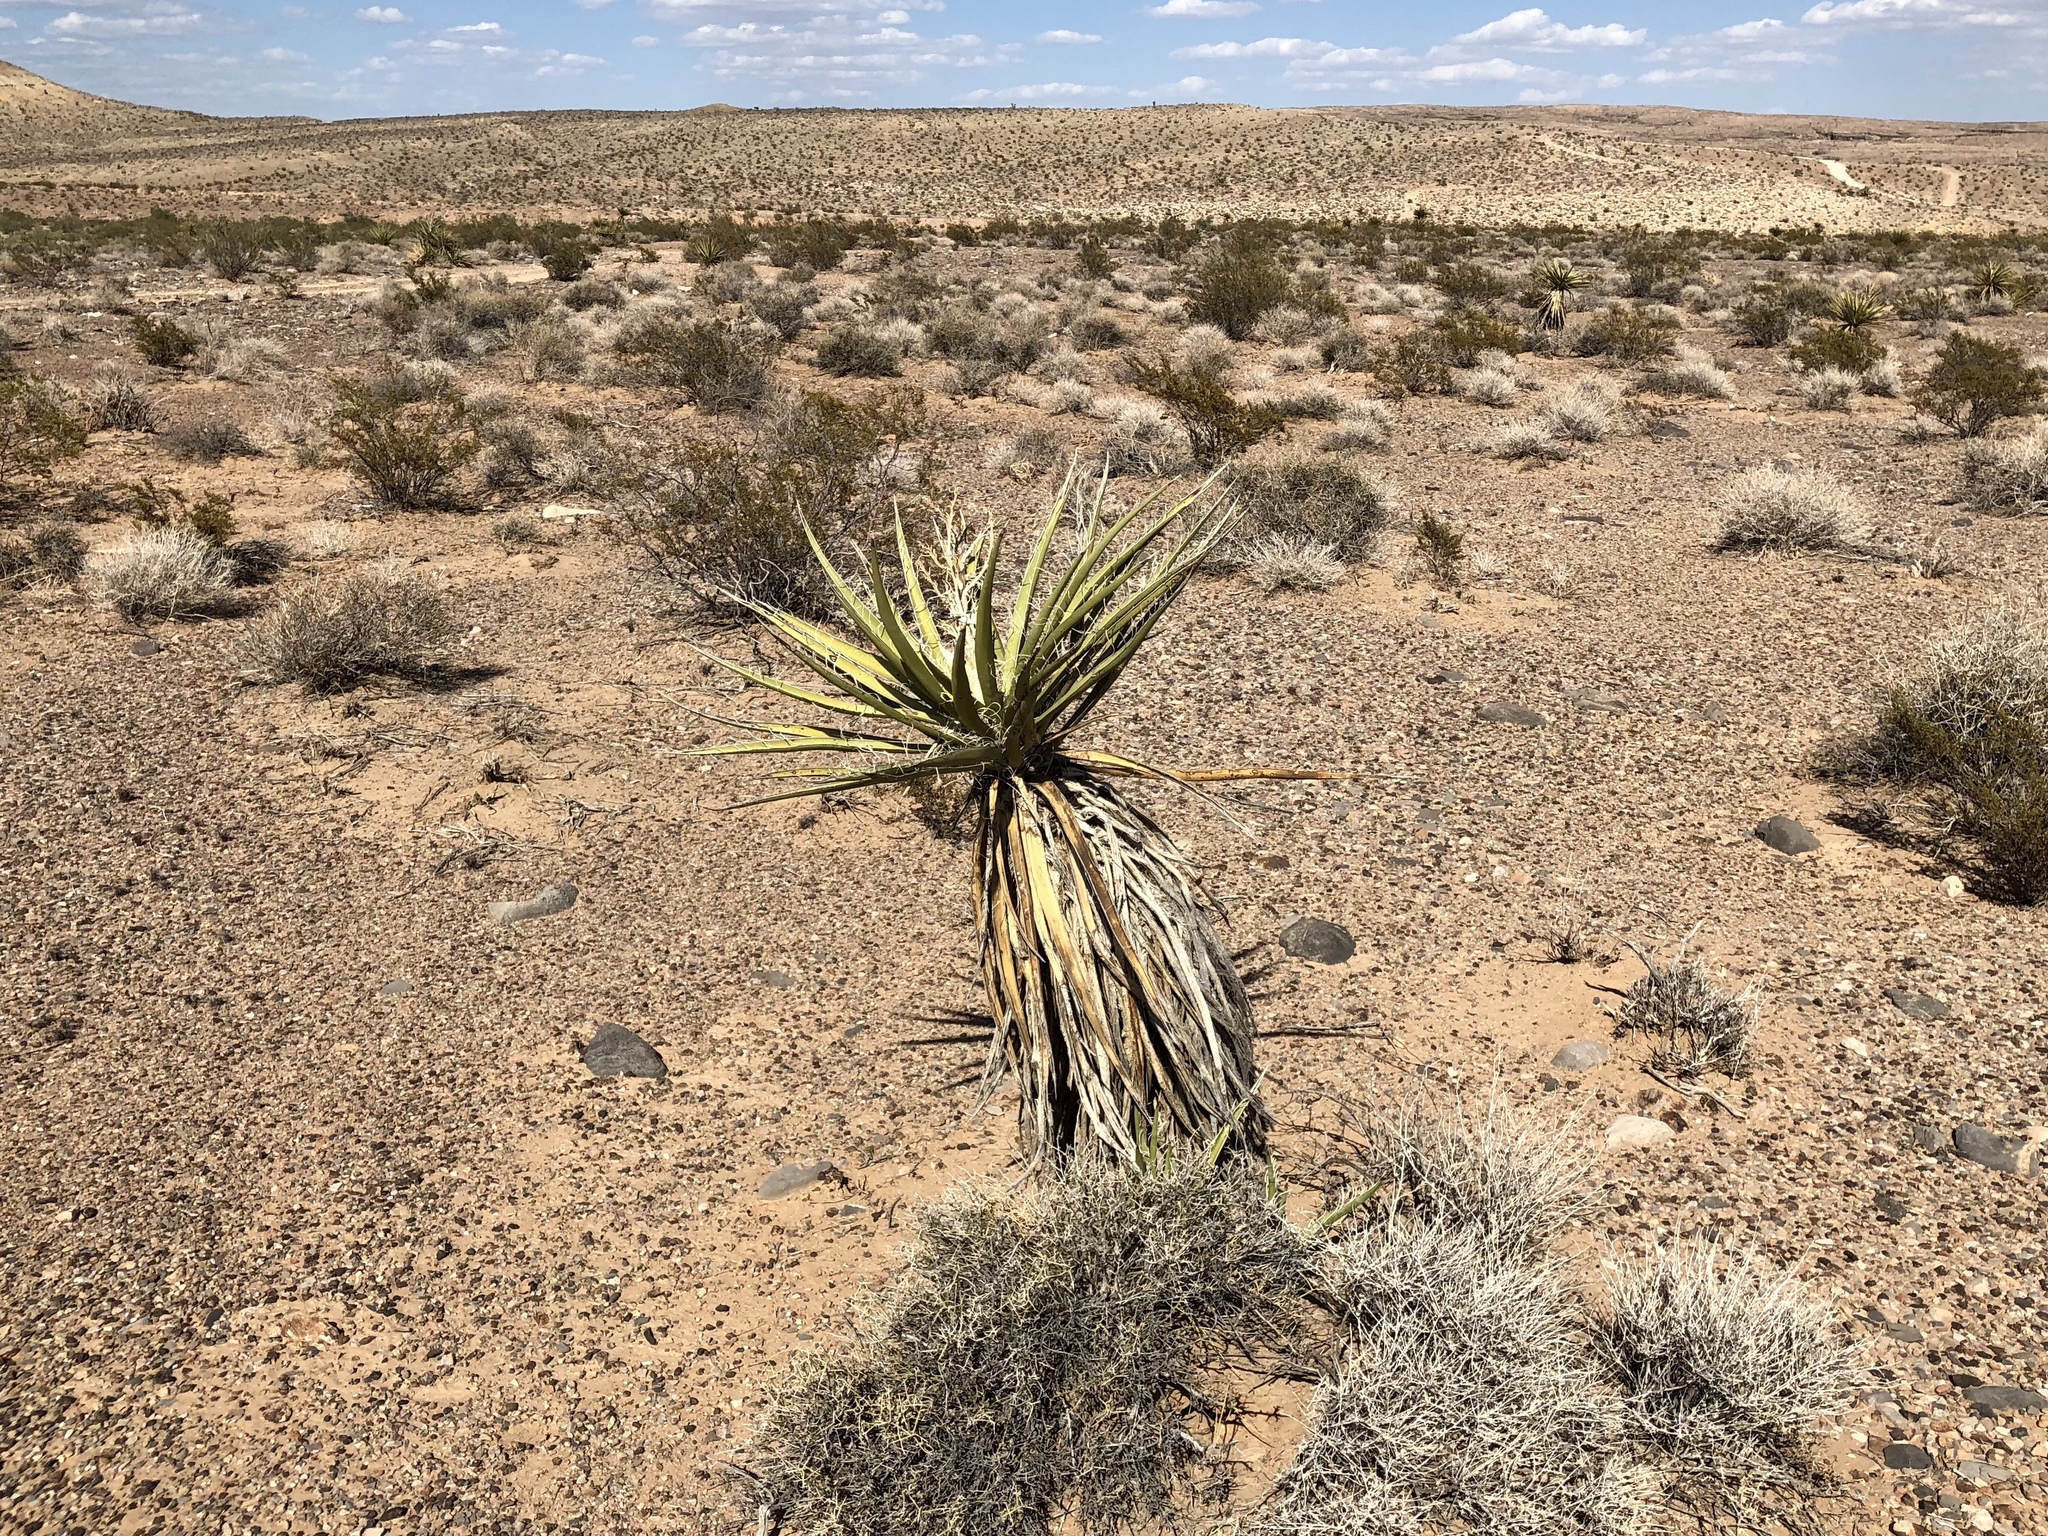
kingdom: Plantae
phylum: Tracheophyta
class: Liliopsida
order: Asparagales
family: Asparagaceae
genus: Yucca
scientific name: Yucca schidigera
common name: Mojave yucca
